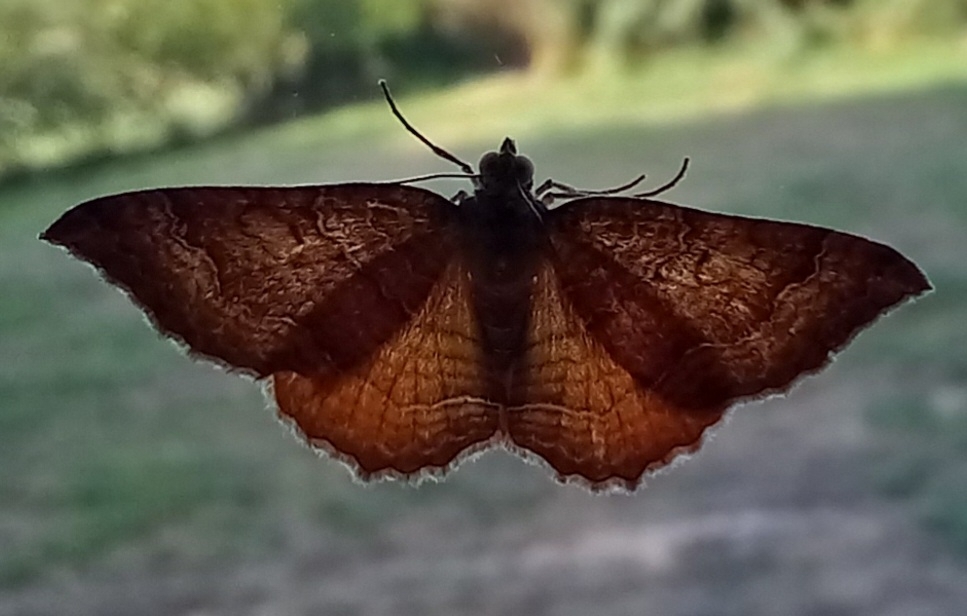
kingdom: Animalia
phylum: Arthropoda
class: Insecta
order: Lepidoptera
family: Geometridae
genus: Camptogramma
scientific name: Camptogramma bilineata
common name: Yellow shell
